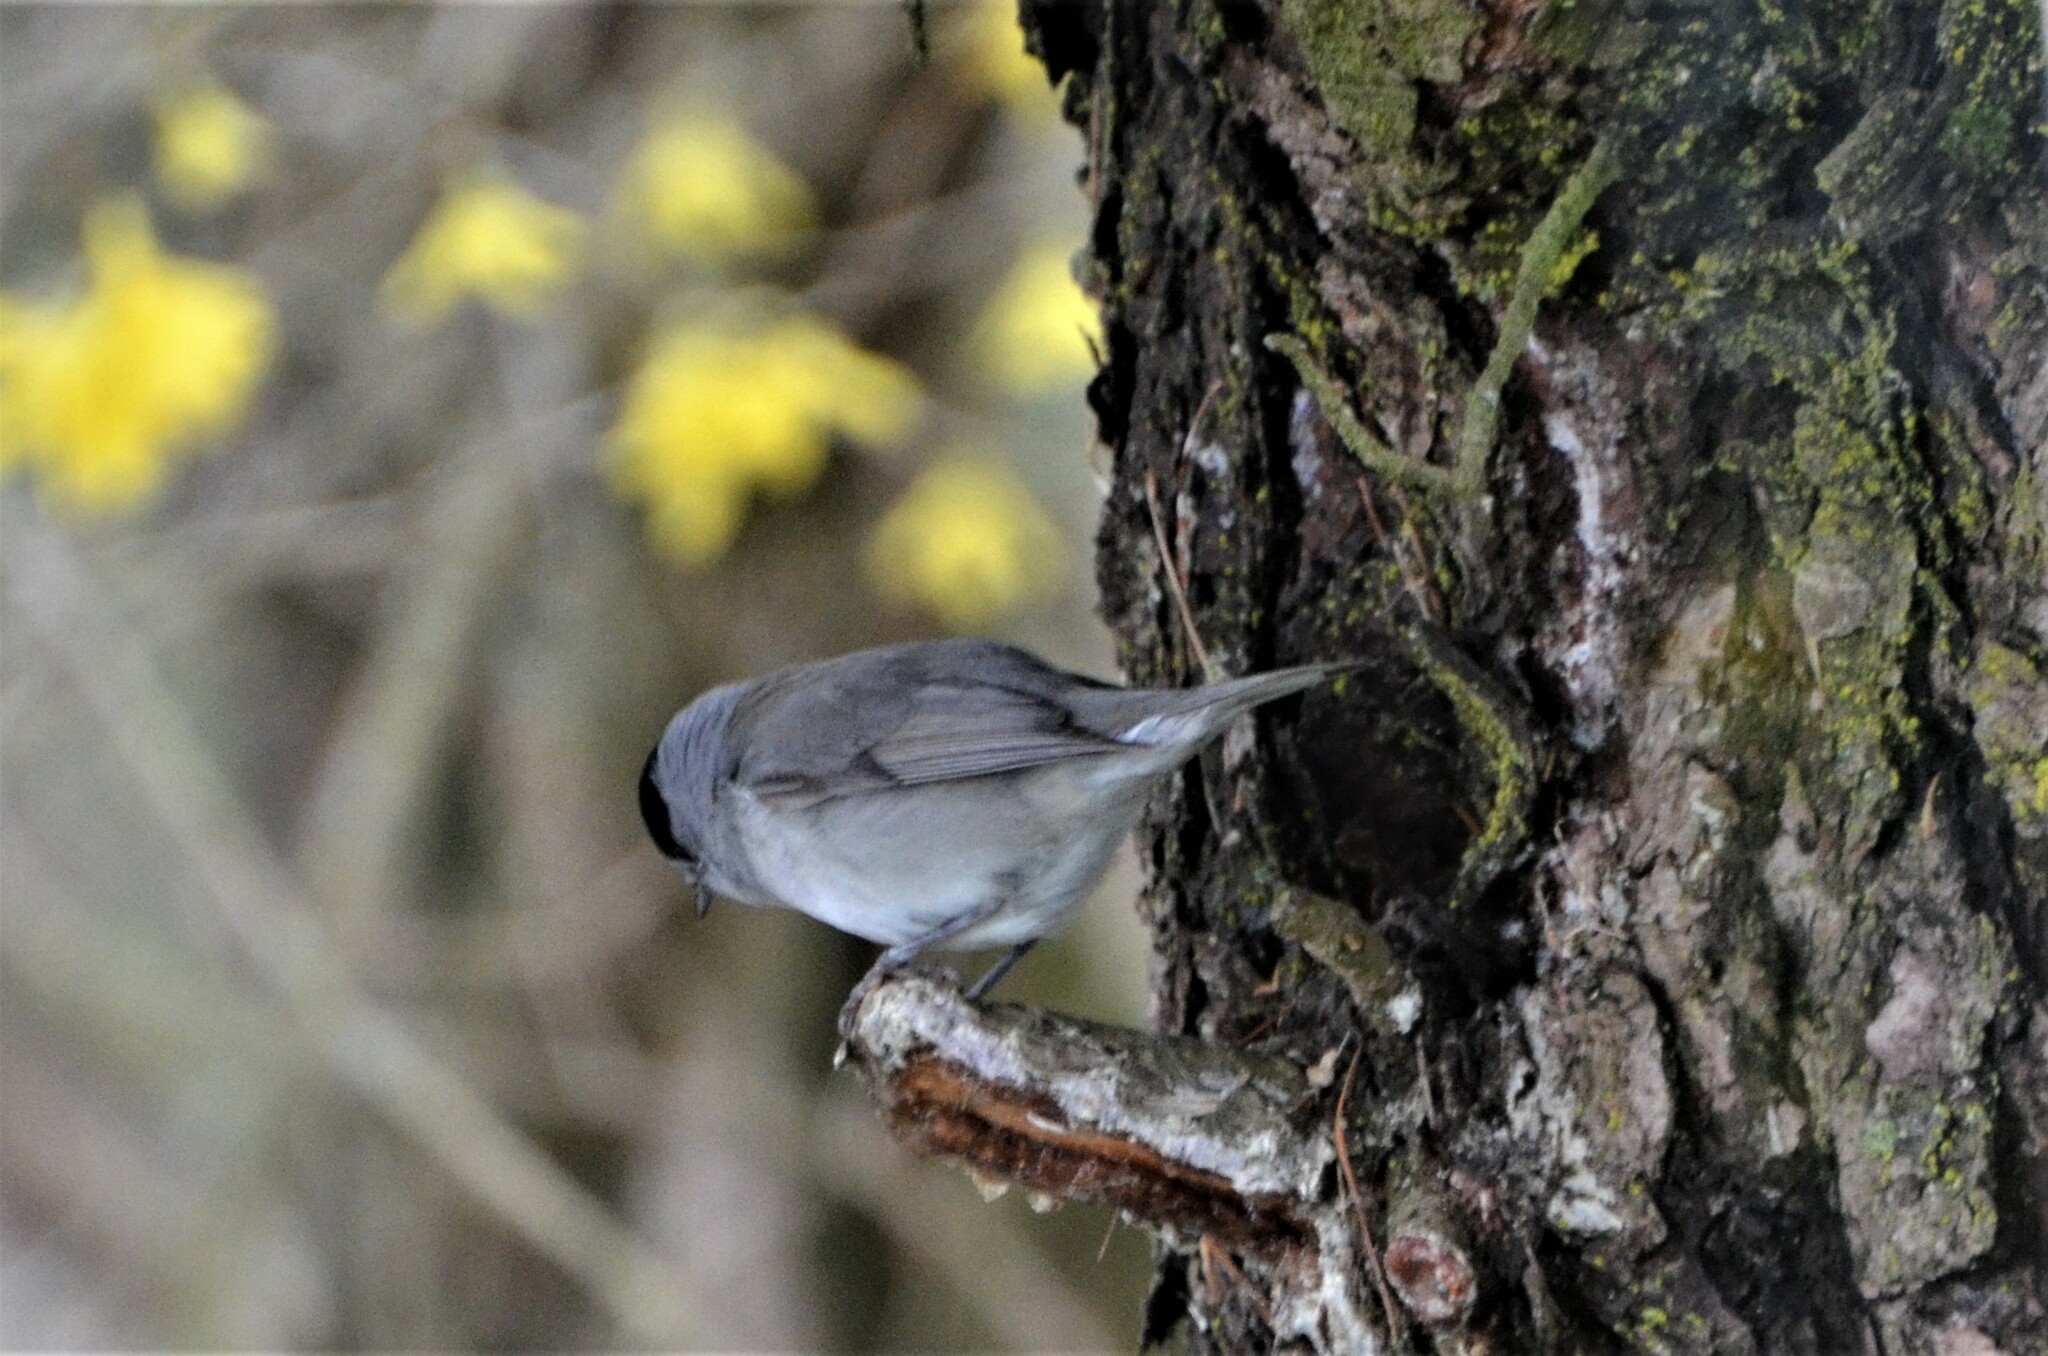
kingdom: Animalia
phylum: Chordata
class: Aves
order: Passeriformes
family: Sylviidae
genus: Sylvia
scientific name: Sylvia atricapilla
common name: Eurasian blackcap
